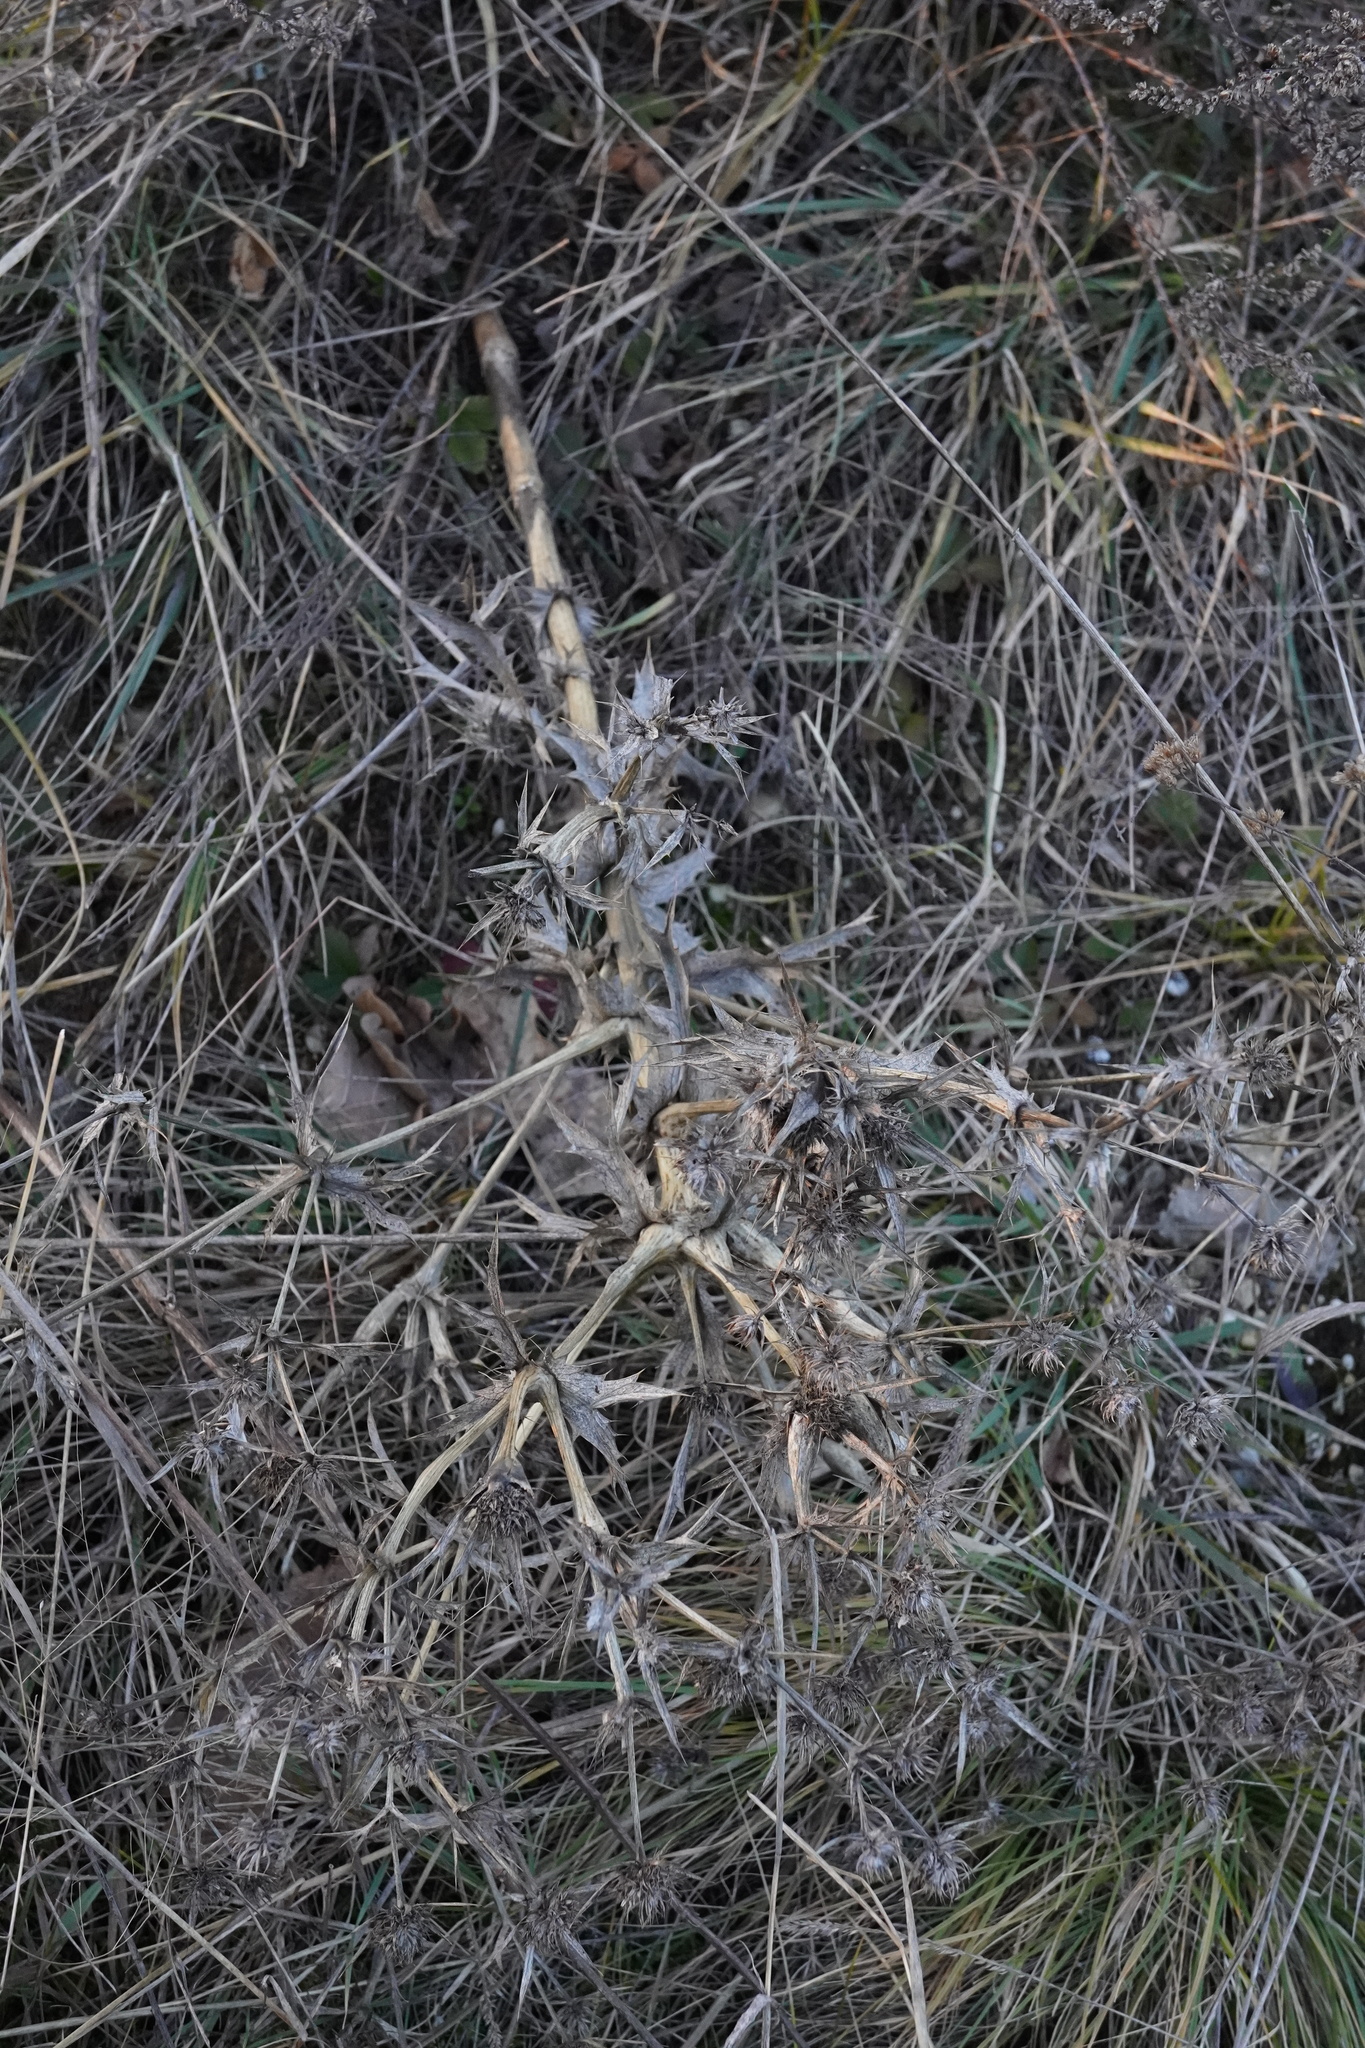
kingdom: Plantae
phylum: Tracheophyta
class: Magnoliopsida
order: Apiales
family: Apiaceae
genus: Eryngium
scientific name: Eryngium campestre
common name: Field eryngo
